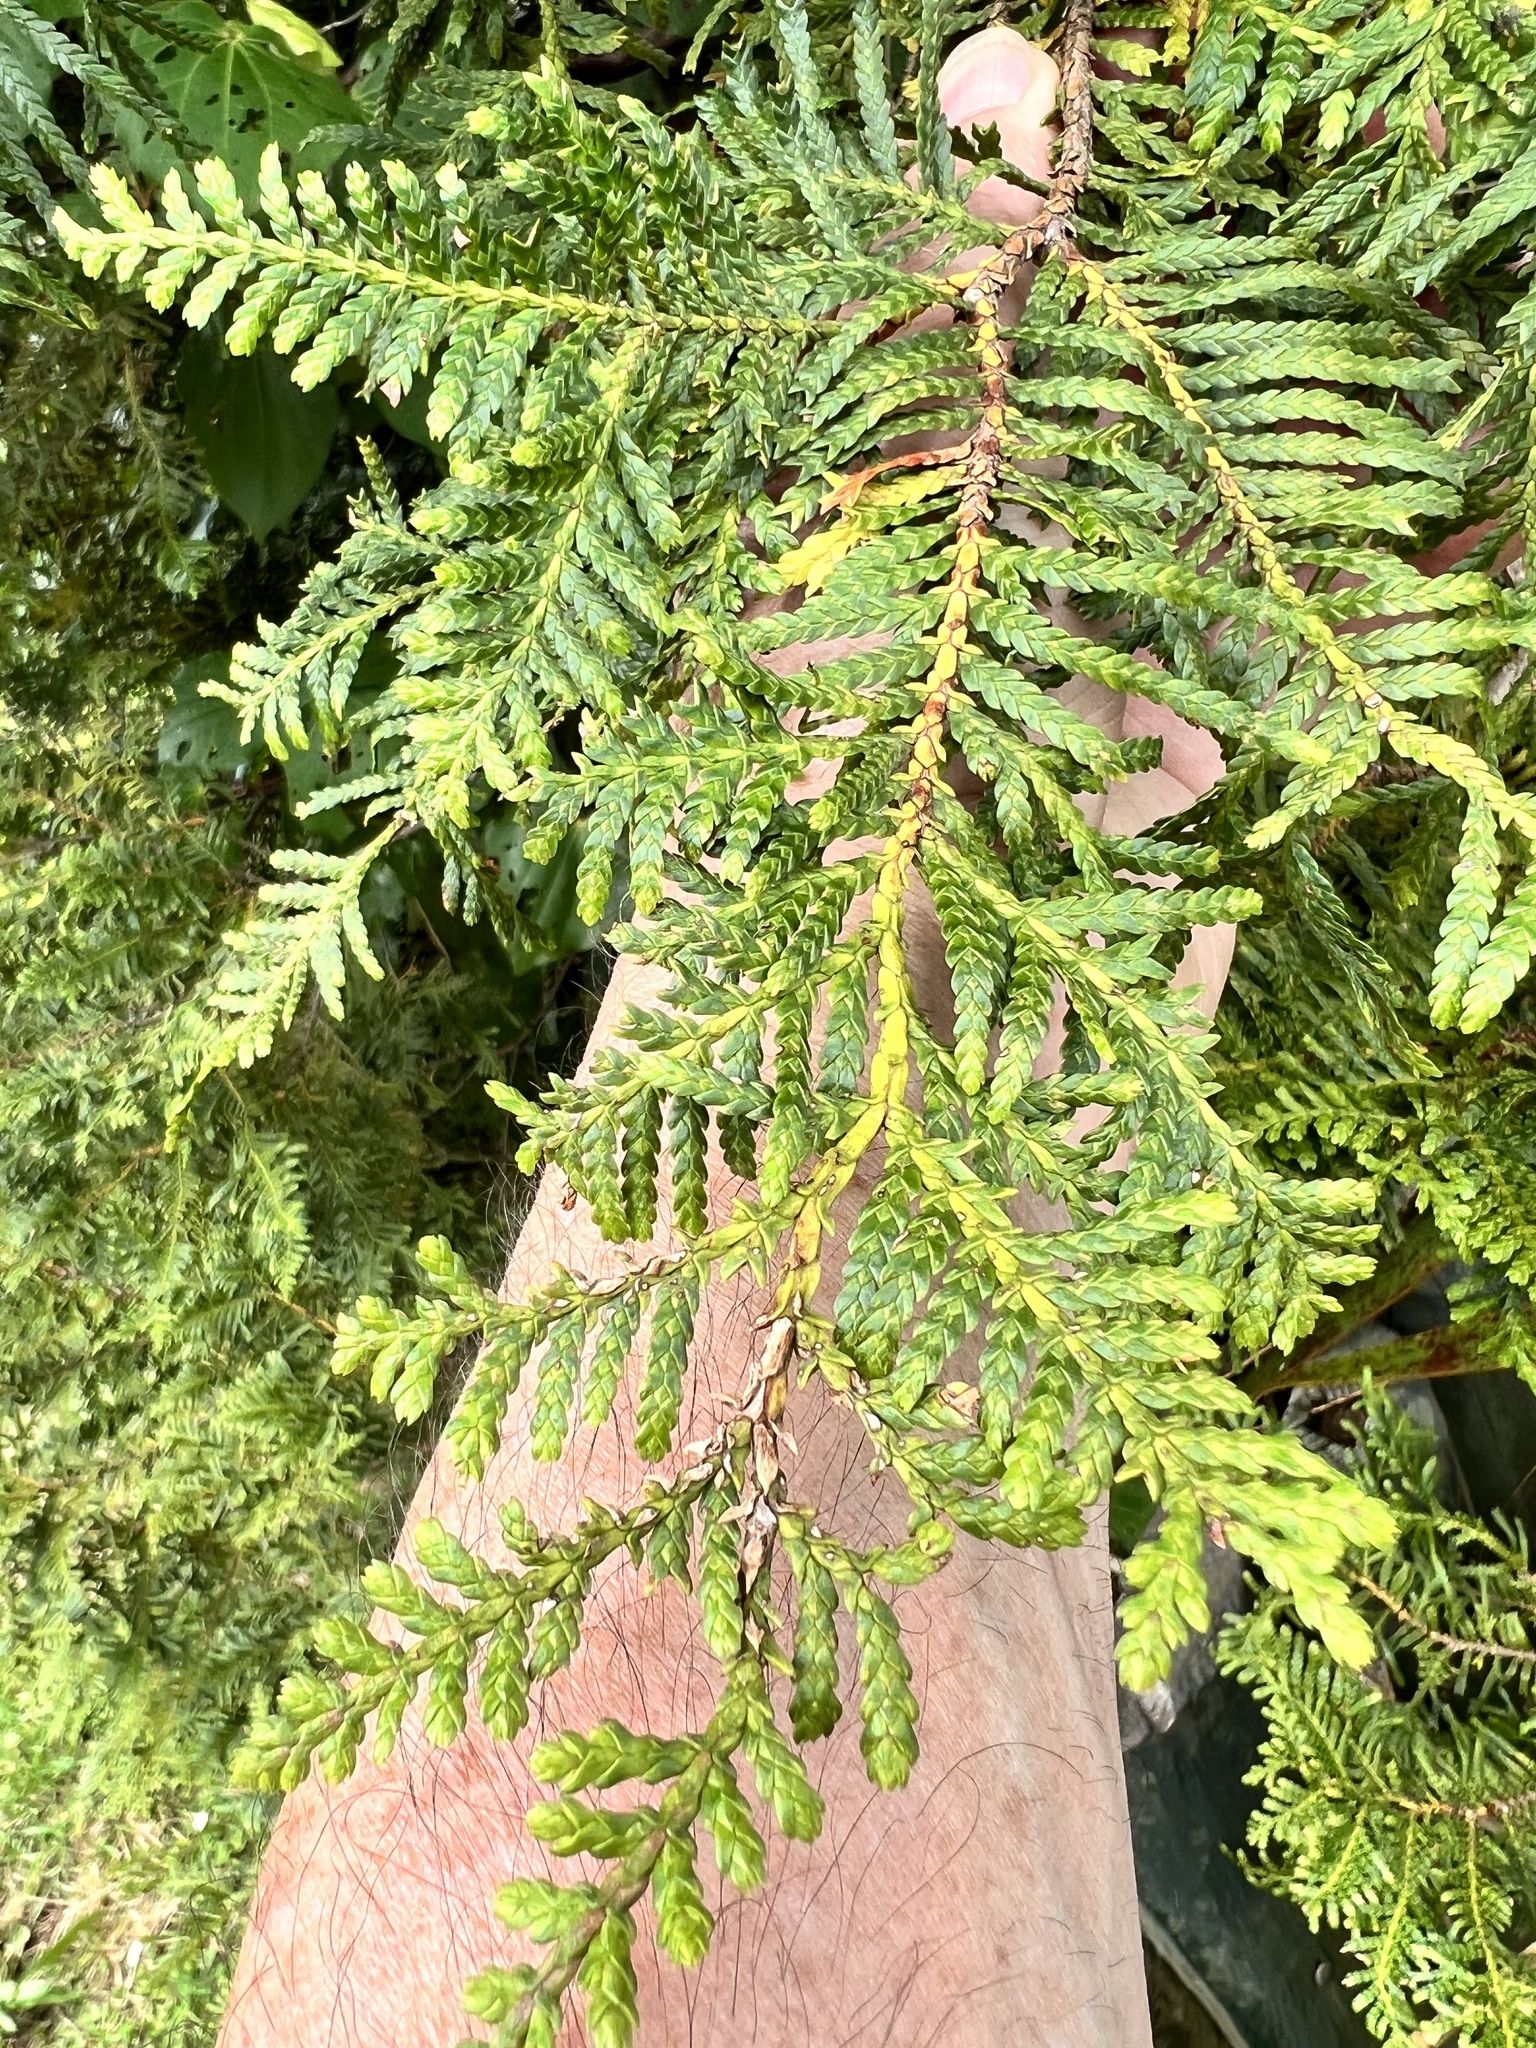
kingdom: Plantae
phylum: Tracheophyta
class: Pinopsida
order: Pinales
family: Cupressaceae
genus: Libocedrus
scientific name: Libocedrus plumosa
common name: New zealand cedar
